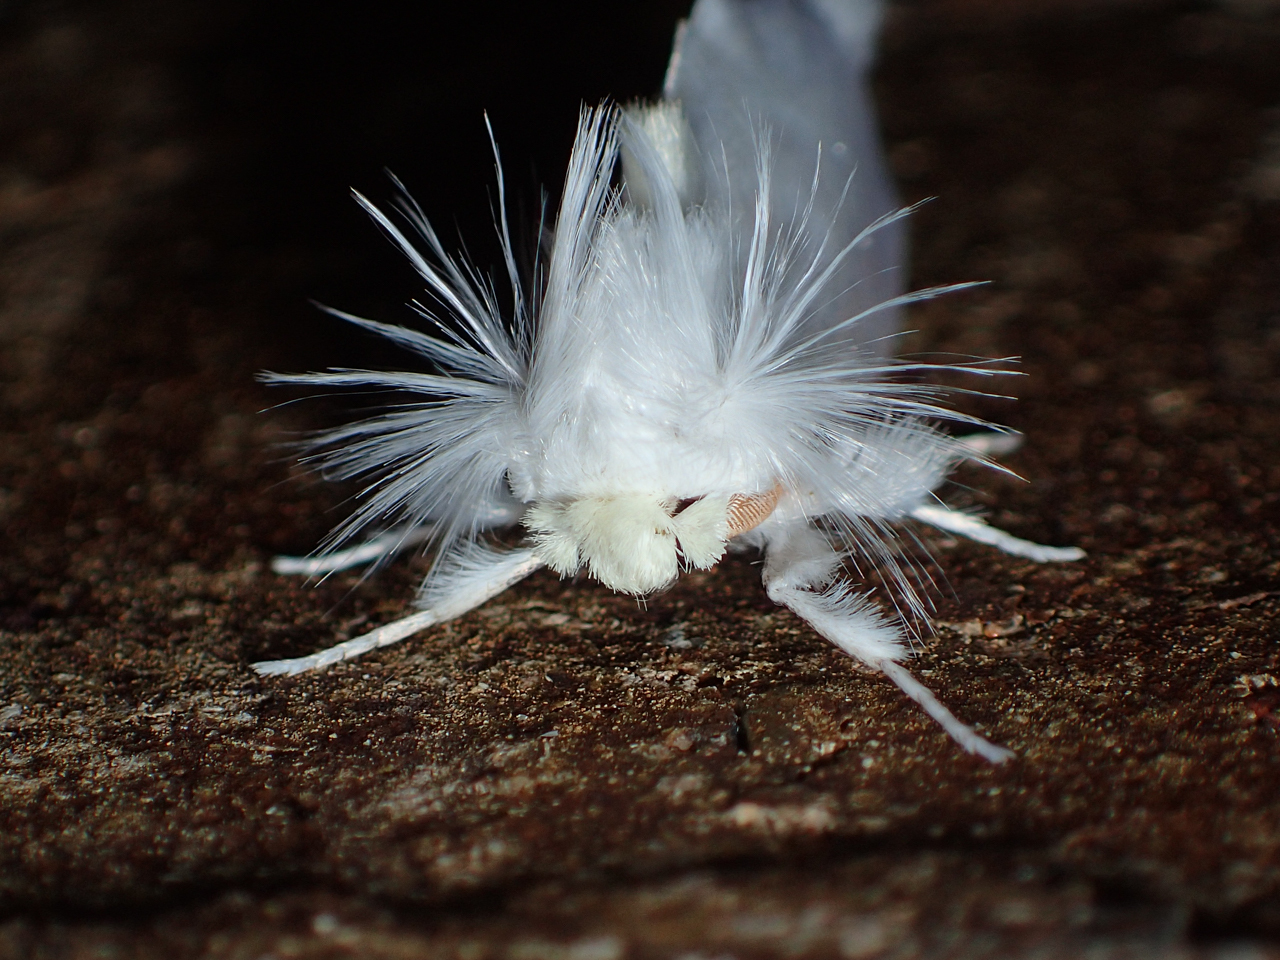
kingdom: Animalia
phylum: Arthropoda
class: Insecta
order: Lepidoptera
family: Megalopygidae
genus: Norape
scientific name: Norape cretata
